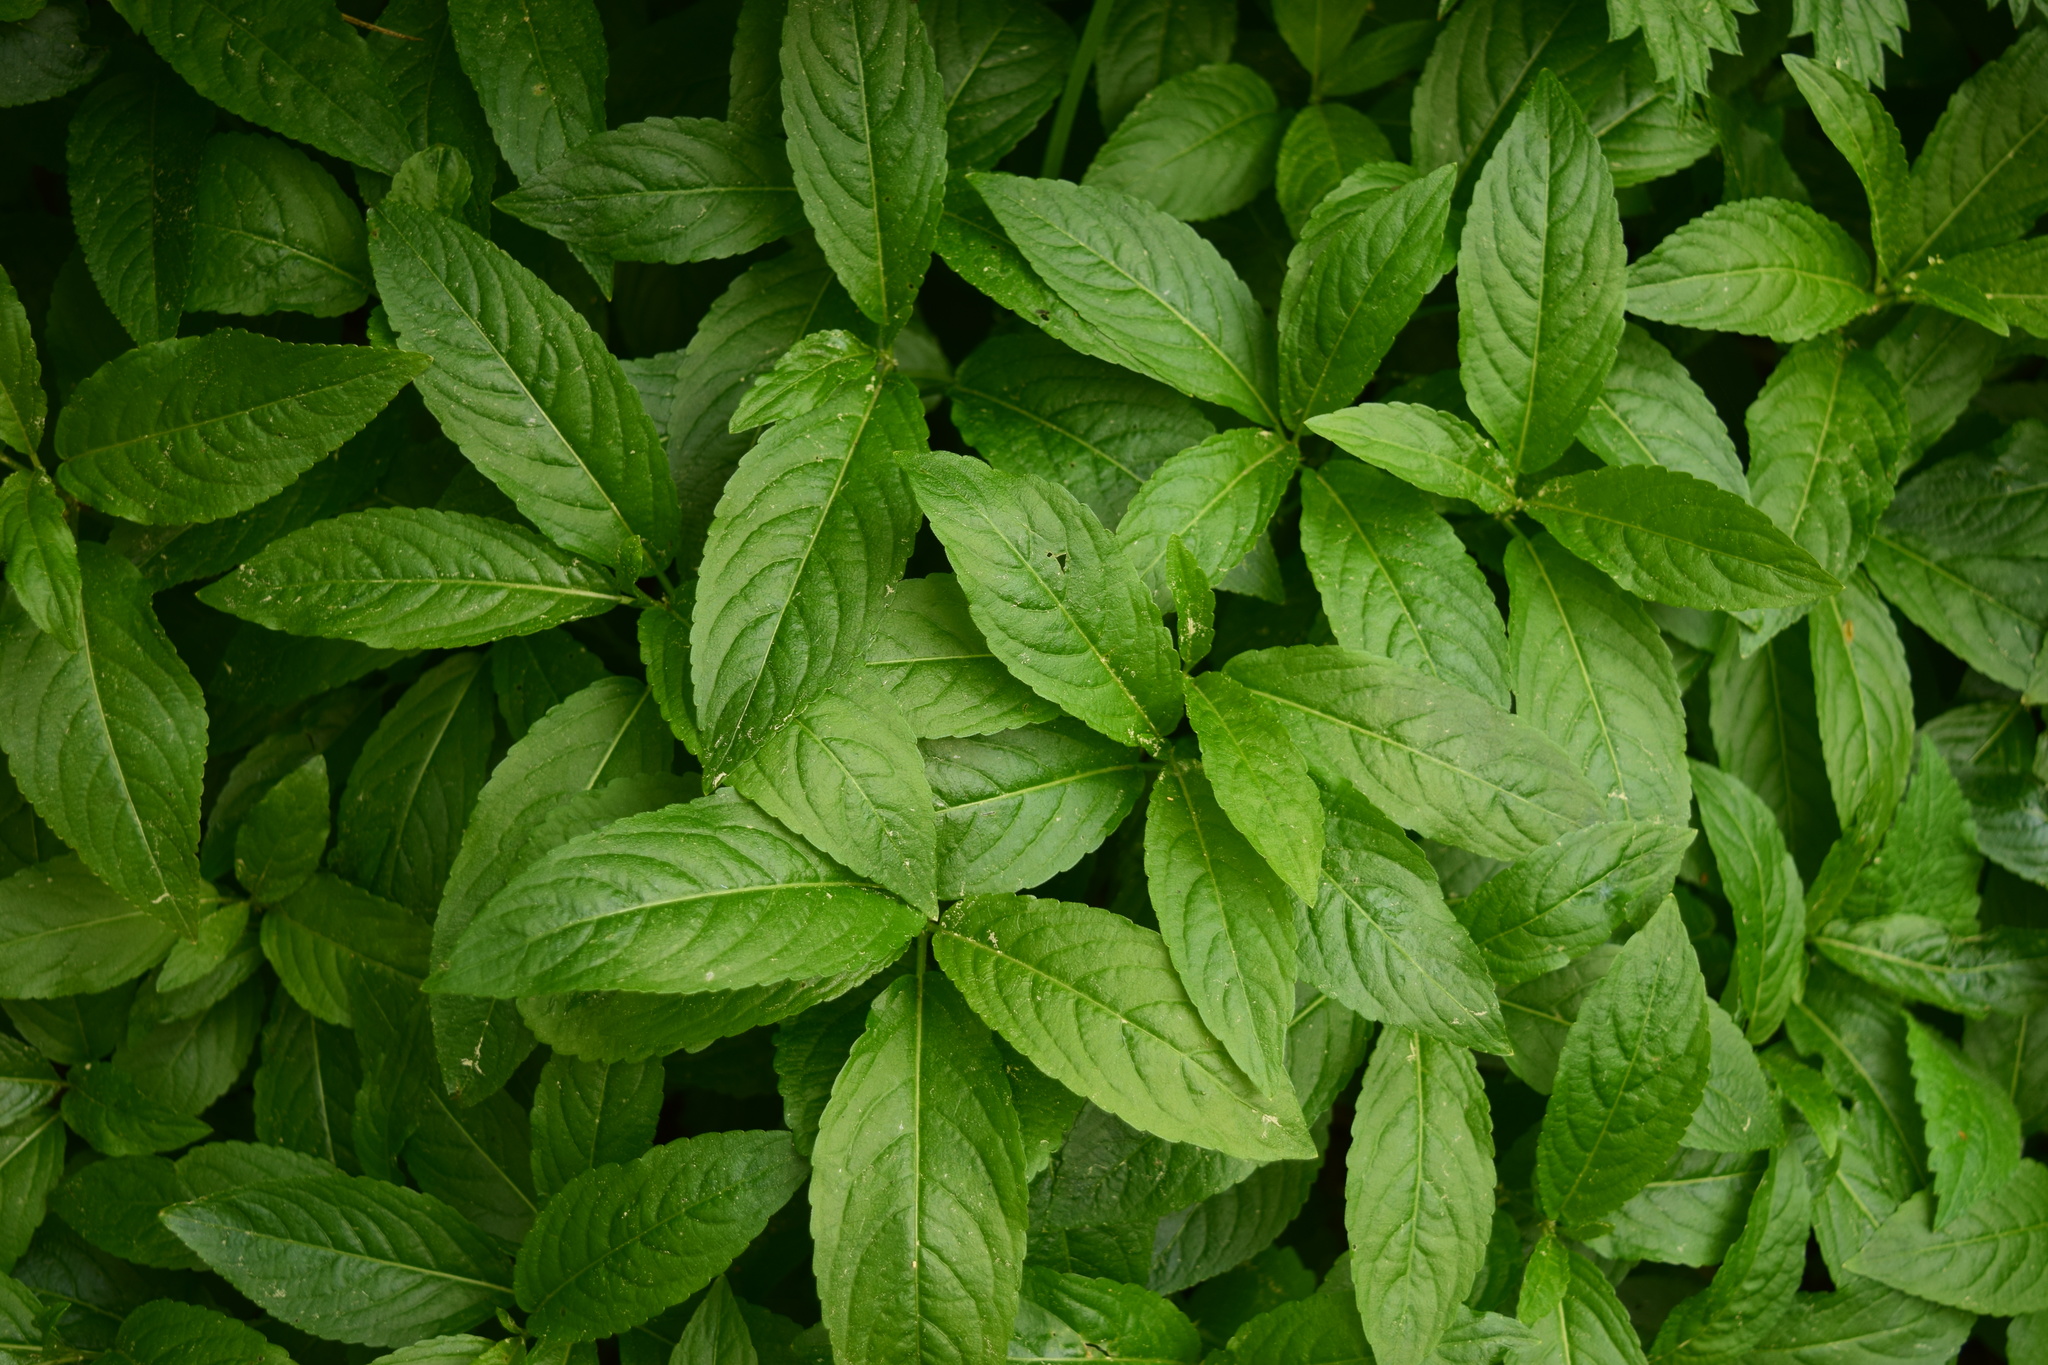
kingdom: Plantae
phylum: Tracheophyta
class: Magnoliopsida
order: Malpighiales
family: Euphorbiaceae
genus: Mercurialis
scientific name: Mercurialis perennis
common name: Dog mercury
